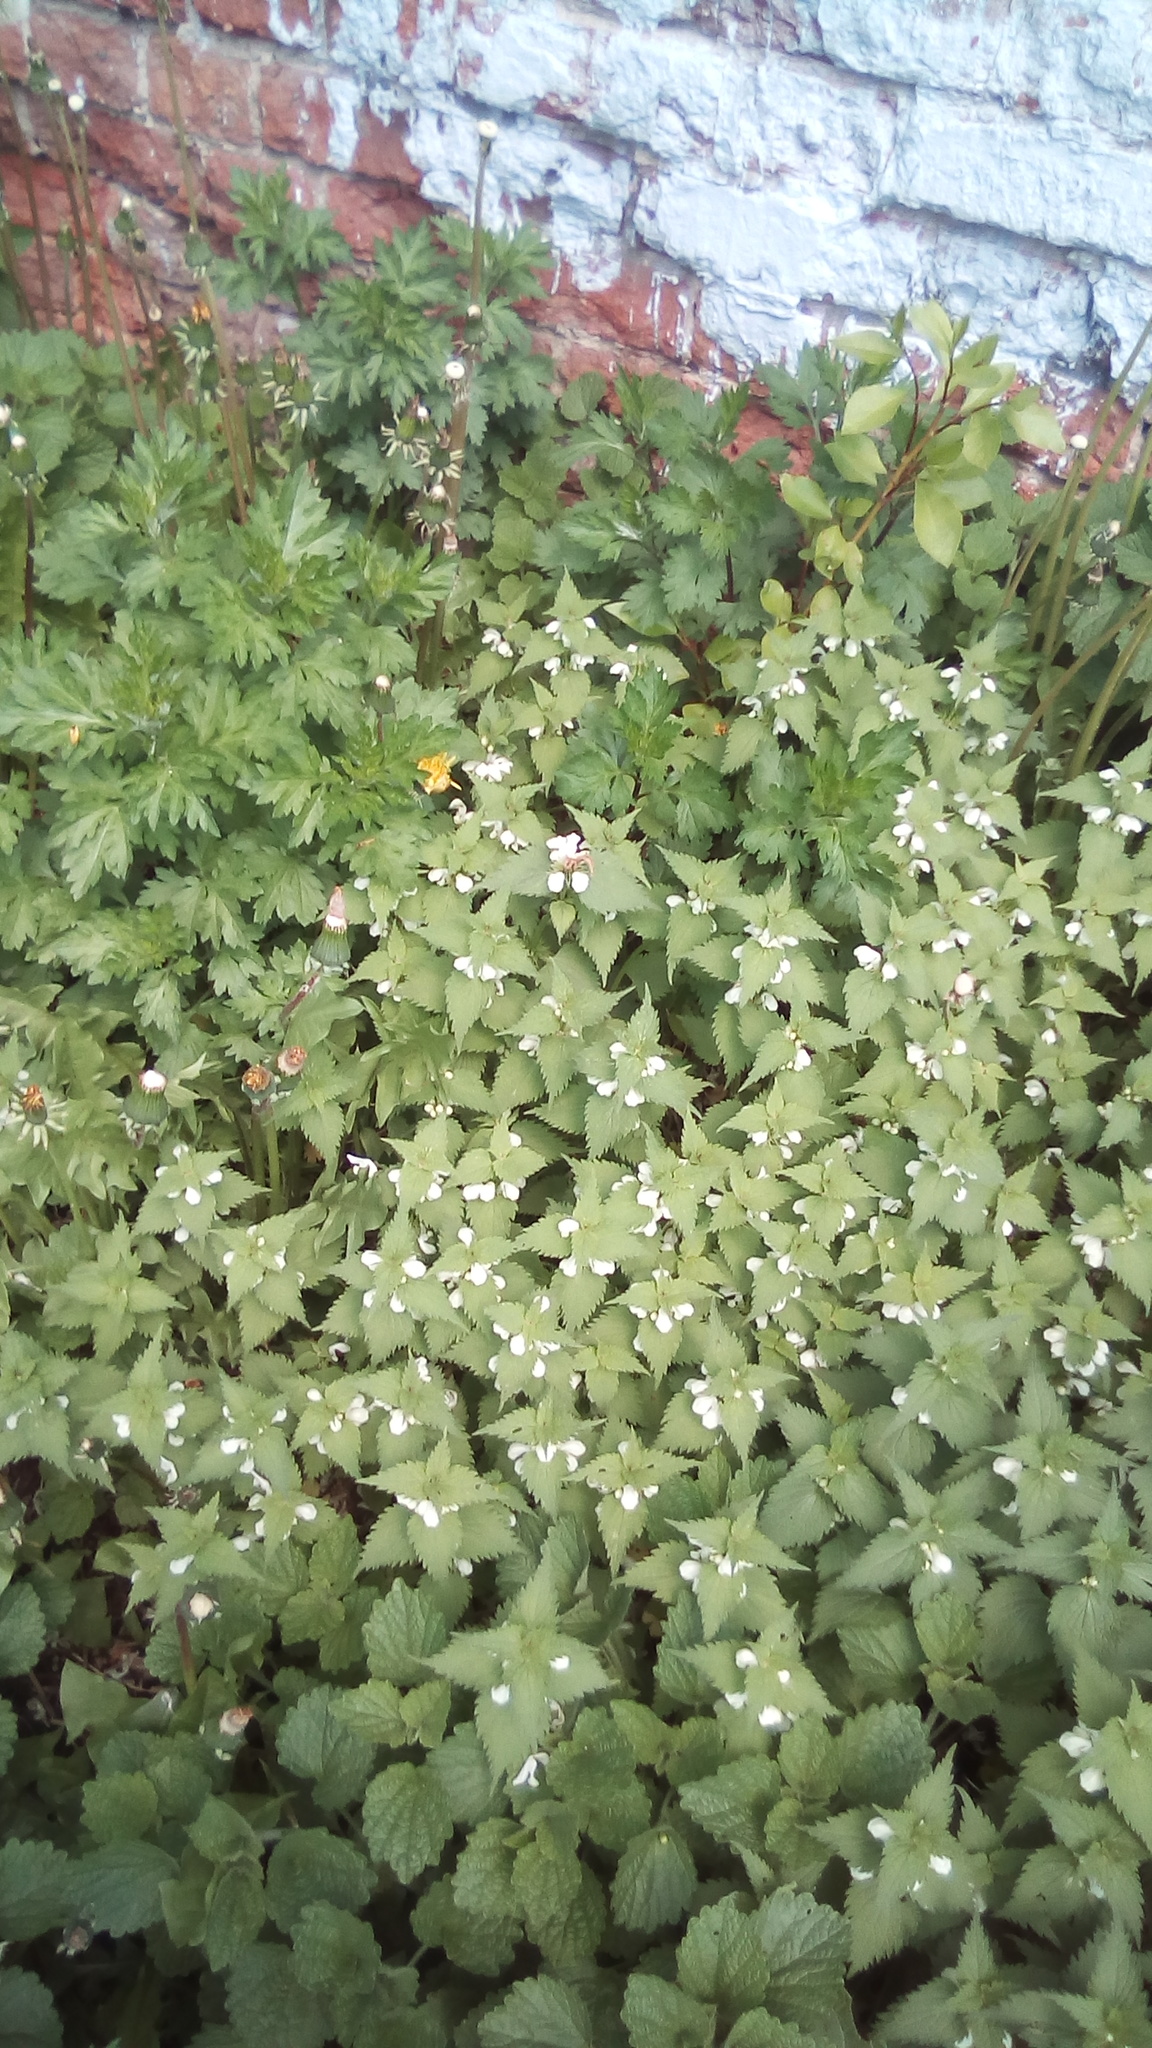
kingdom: Plantae
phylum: Tracheophyta
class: Magnoliopsida
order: Lamiales
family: Lamiaceae
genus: Lamium
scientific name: Lamium album
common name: White dead-nettle
